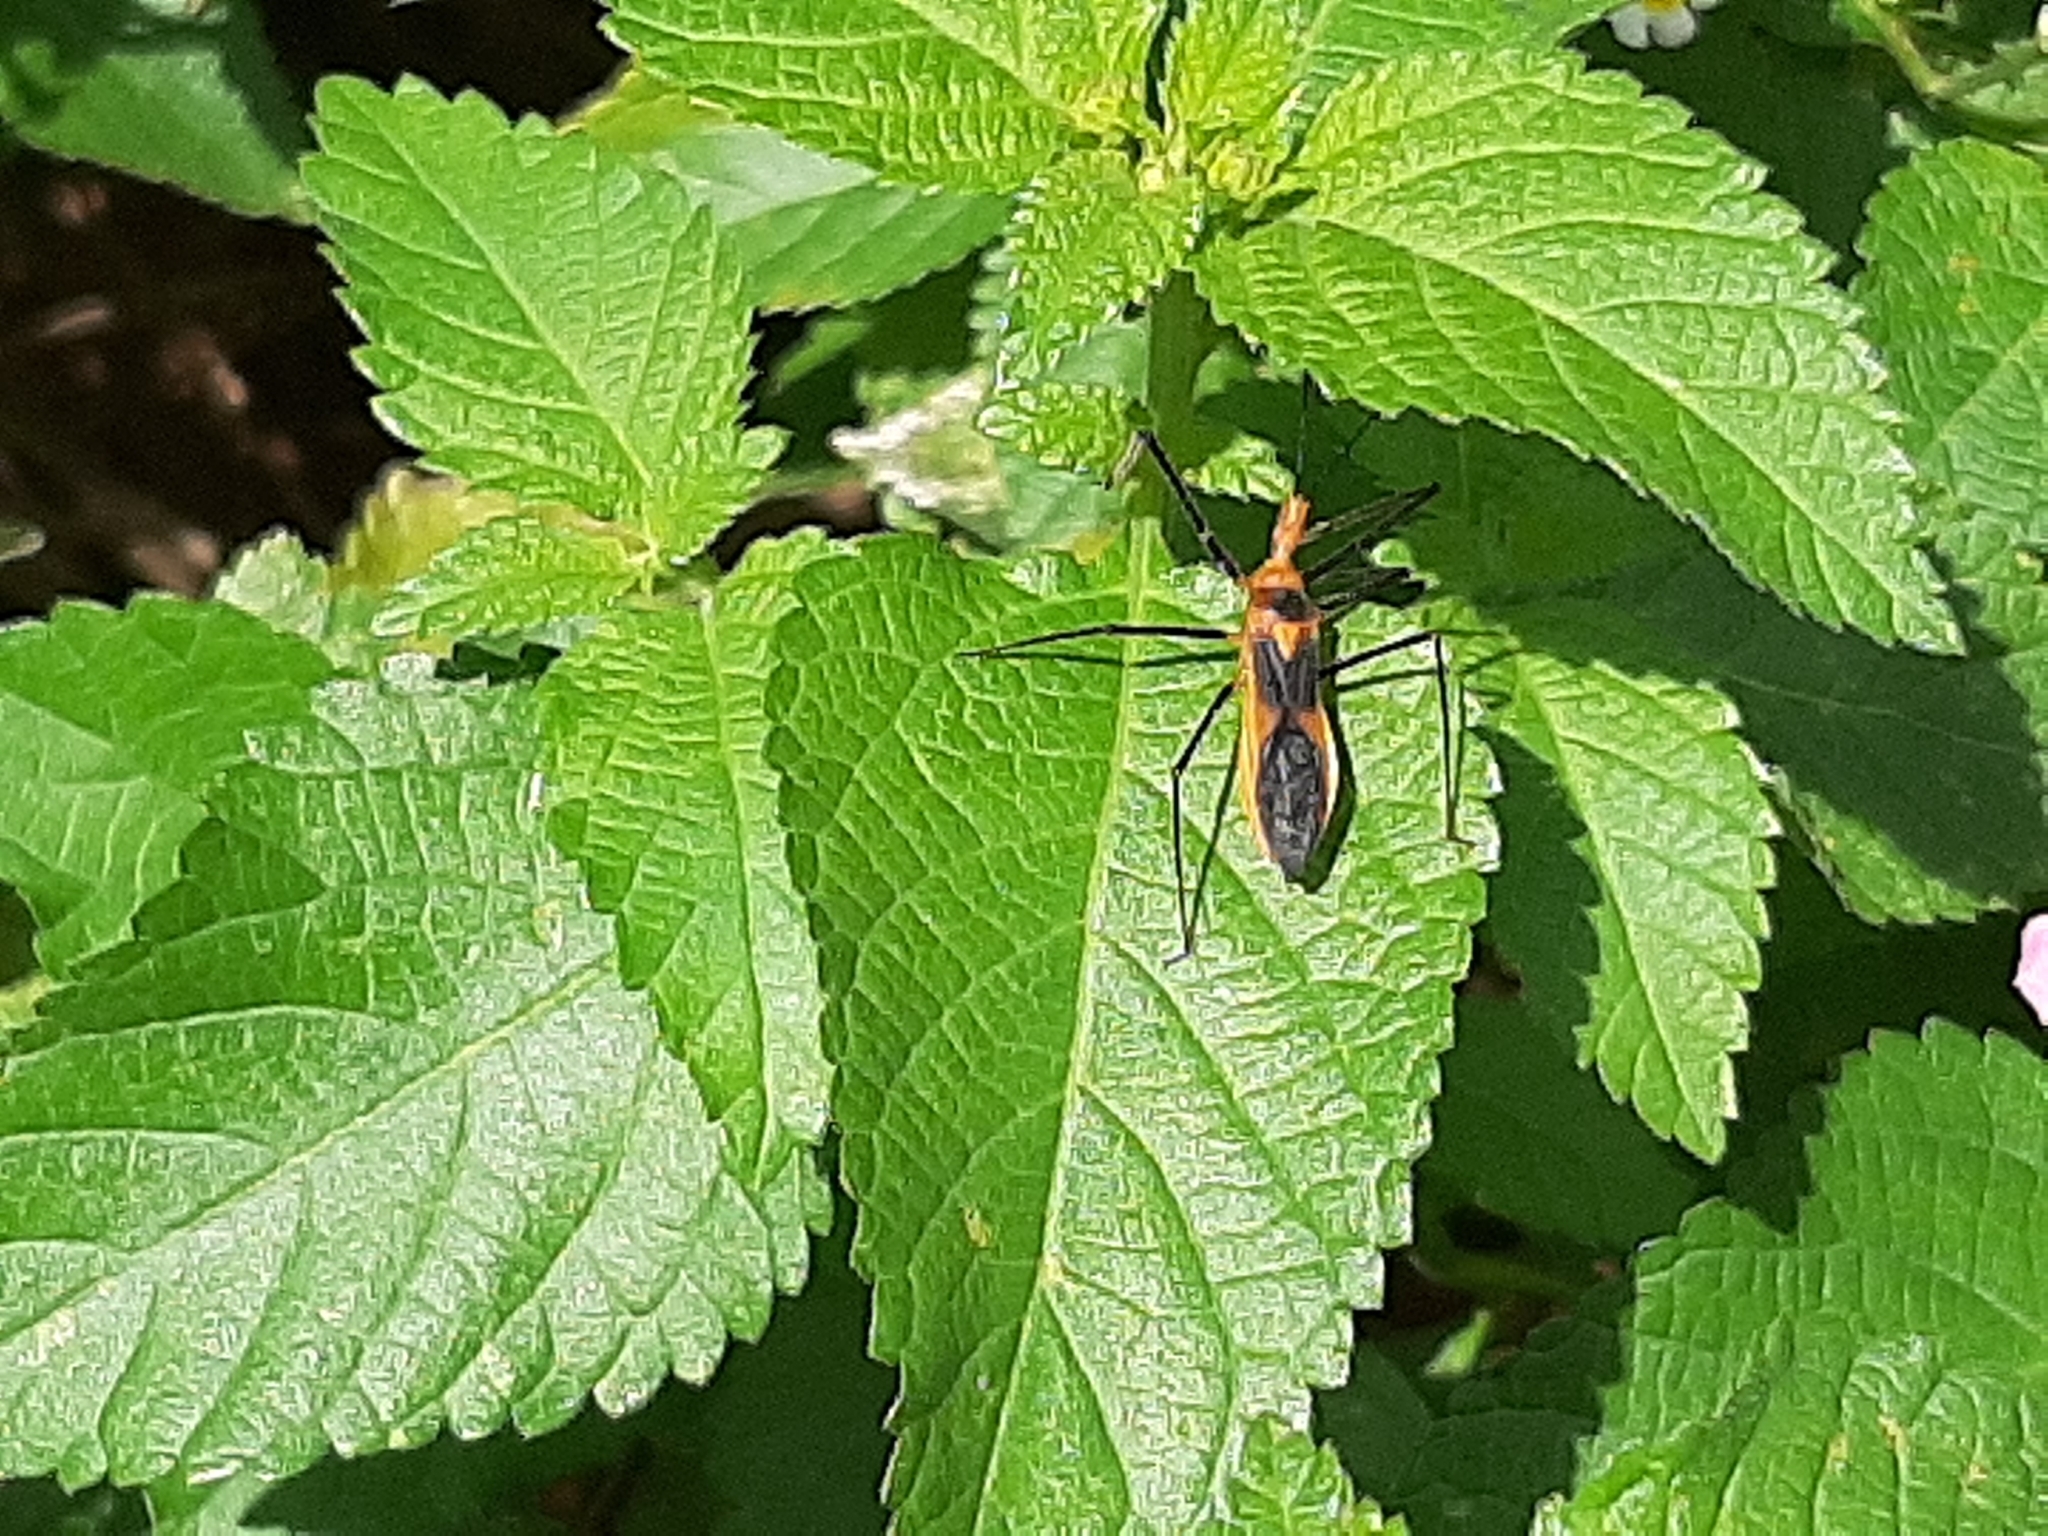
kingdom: Animalia
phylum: Arthropoda
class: Insecta
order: Hemiptera
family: Reduviidae
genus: Zelus
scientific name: Zelus longipes
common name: Milkweed assassin bug
